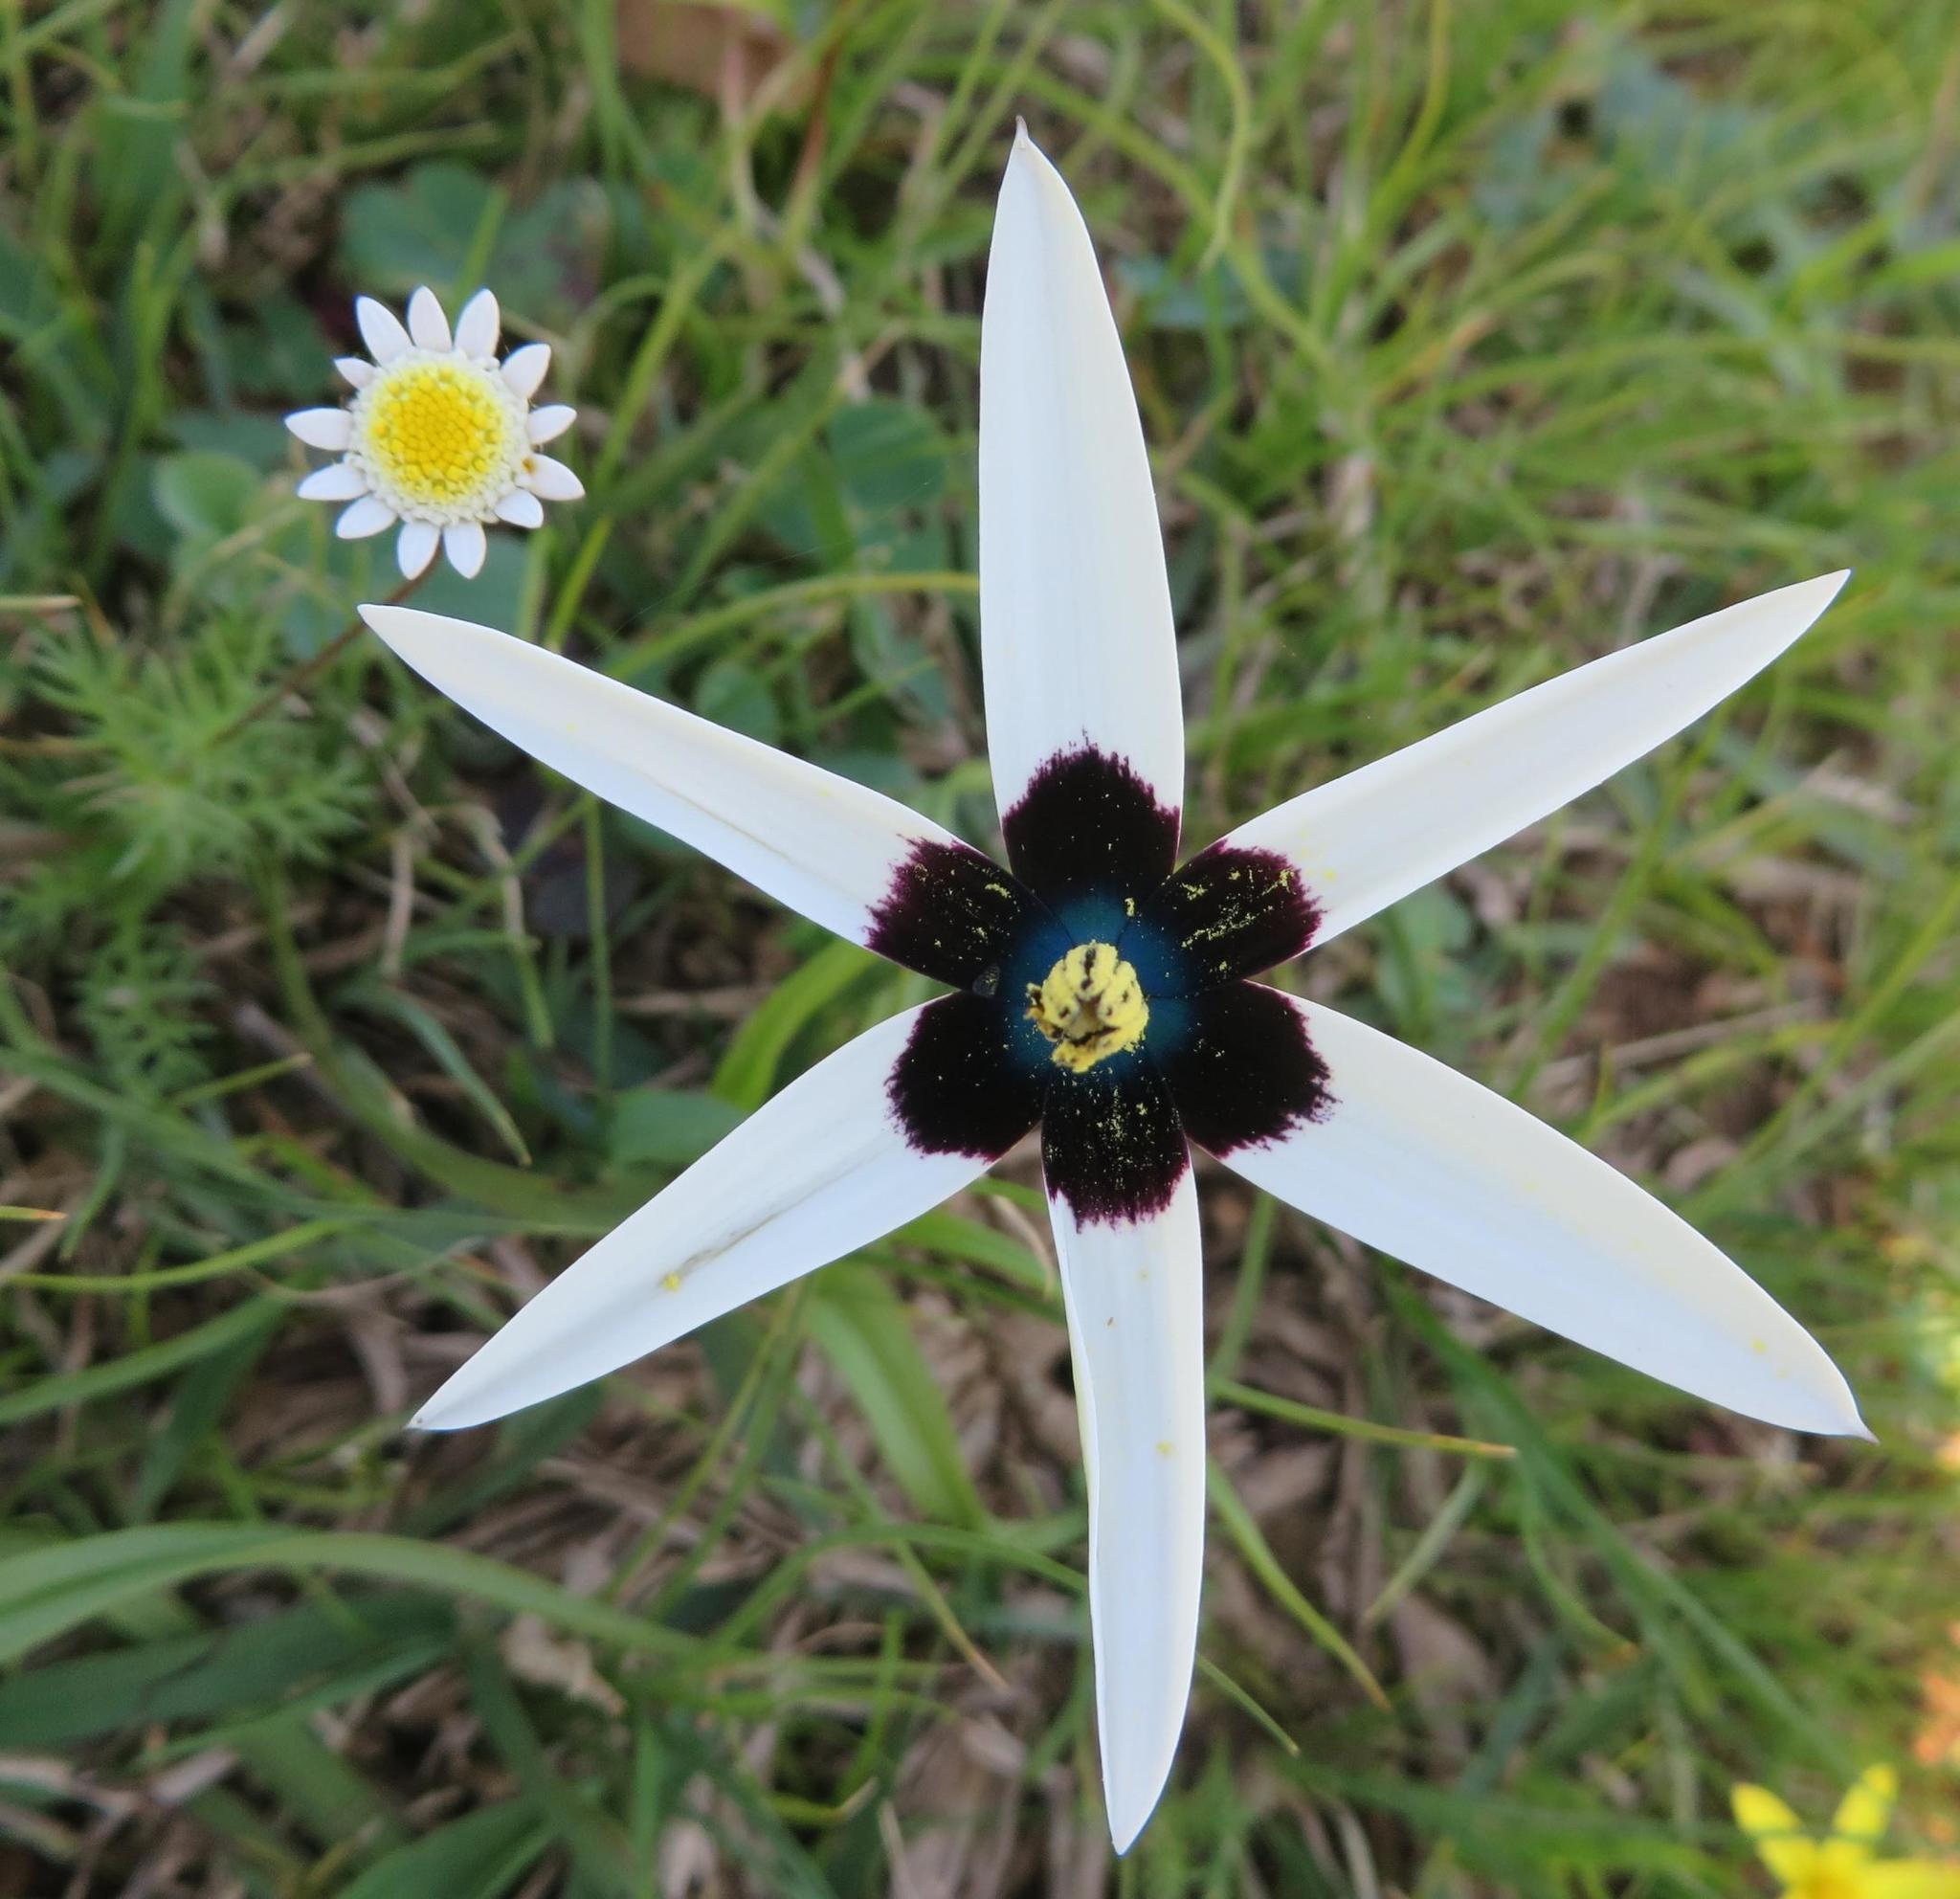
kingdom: Plantae
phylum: Tracheophyta
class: Liliopsida
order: Asparagales
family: Hypoxidaceae
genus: Pauridia
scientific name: Pauridia capensis
